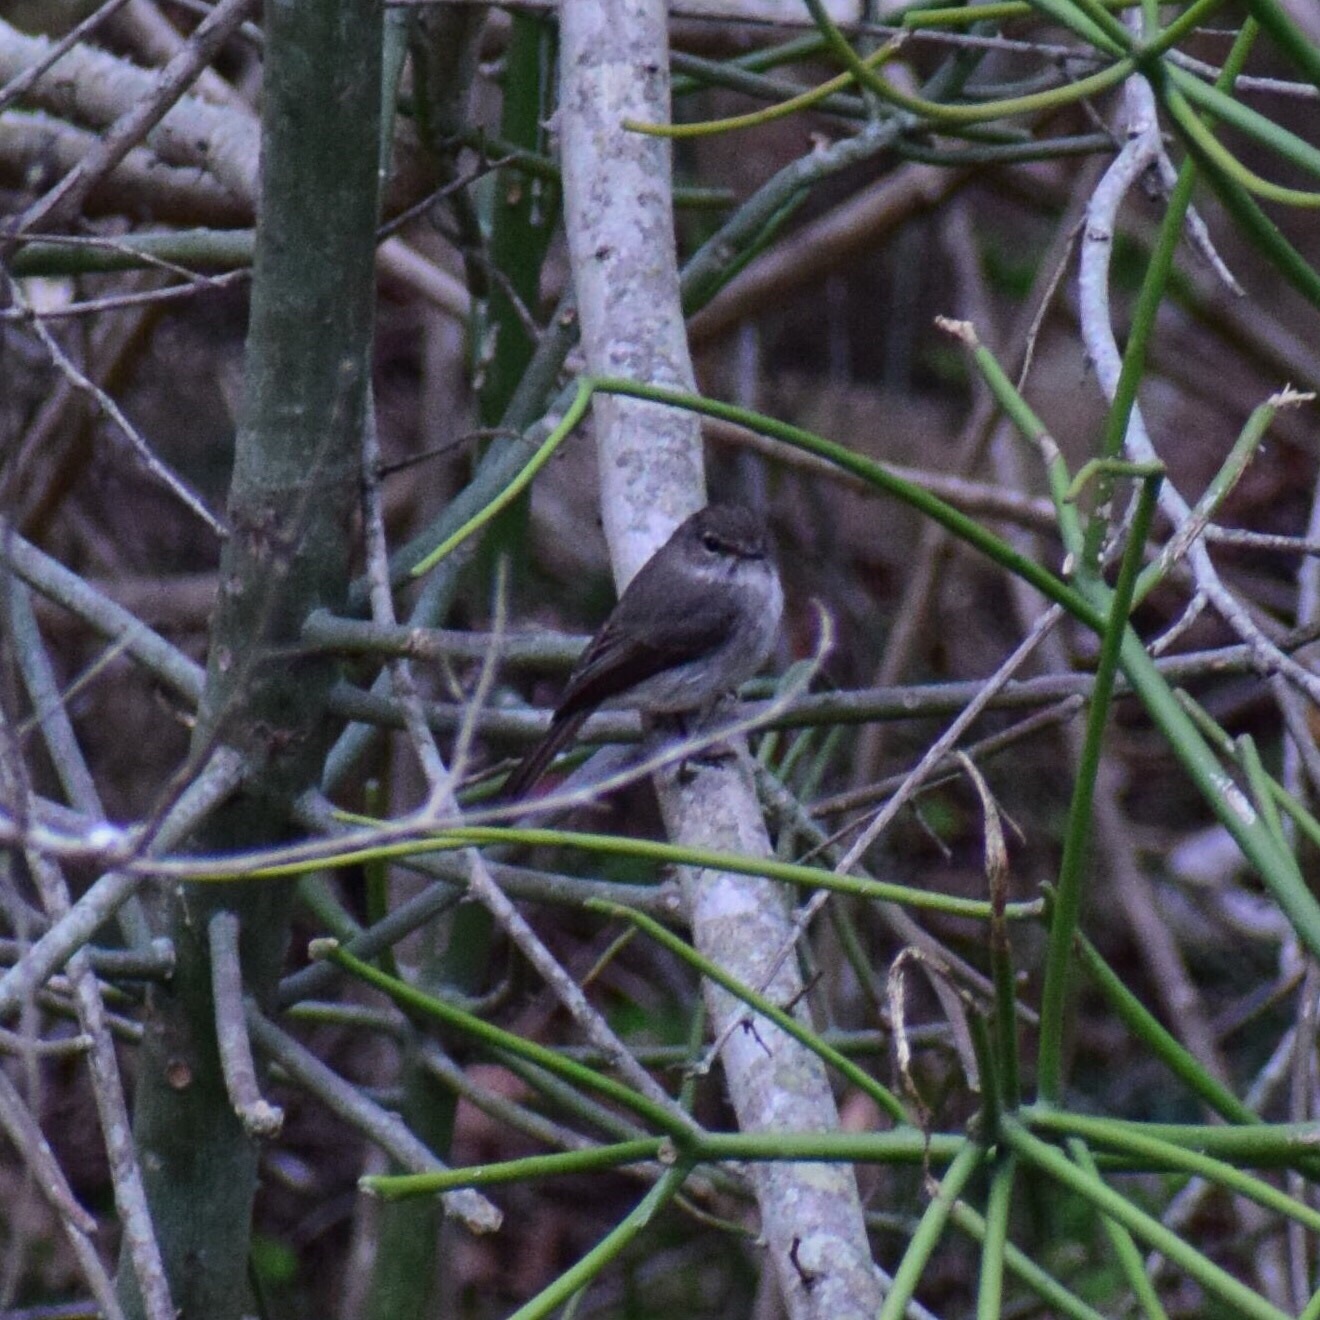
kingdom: Animalia
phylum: Chordata
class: Aves
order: Passeriformes
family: Muscicapidae
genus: Muscicapa
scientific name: Muscicapa adusta
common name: African dusky flycatcher
